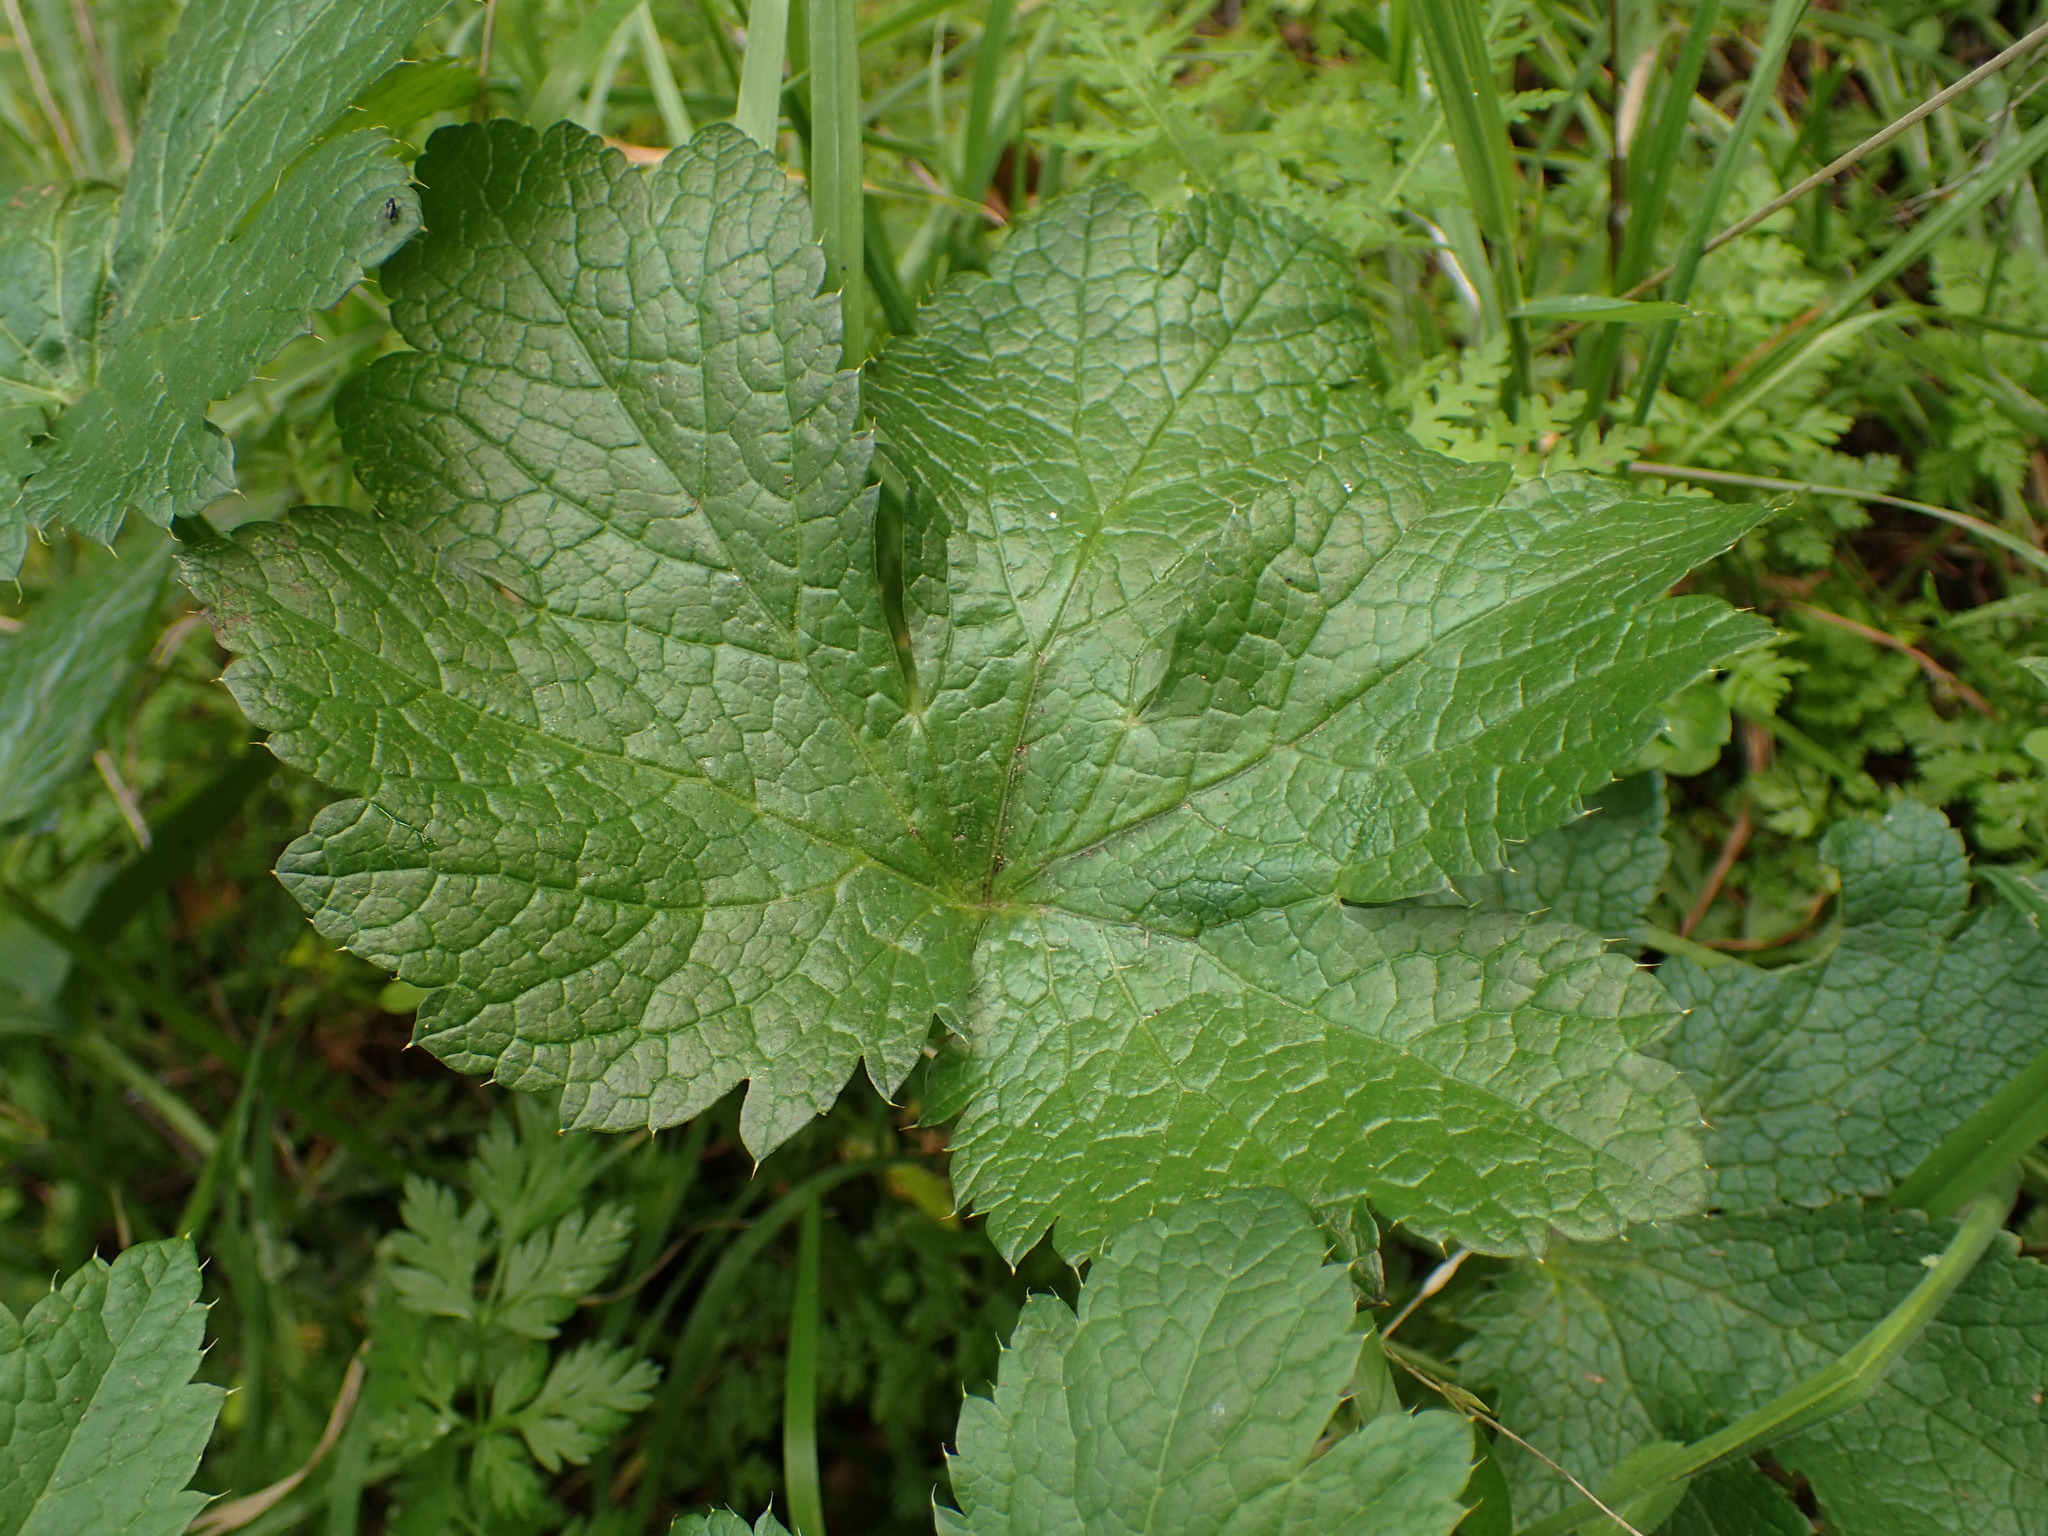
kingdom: Plantae
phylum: Tracheophyta
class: Magnoliopsida
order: Apiales
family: Apiaceae
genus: Sanicula
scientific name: Sanicula crassicaulis
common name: Western snakeroot
